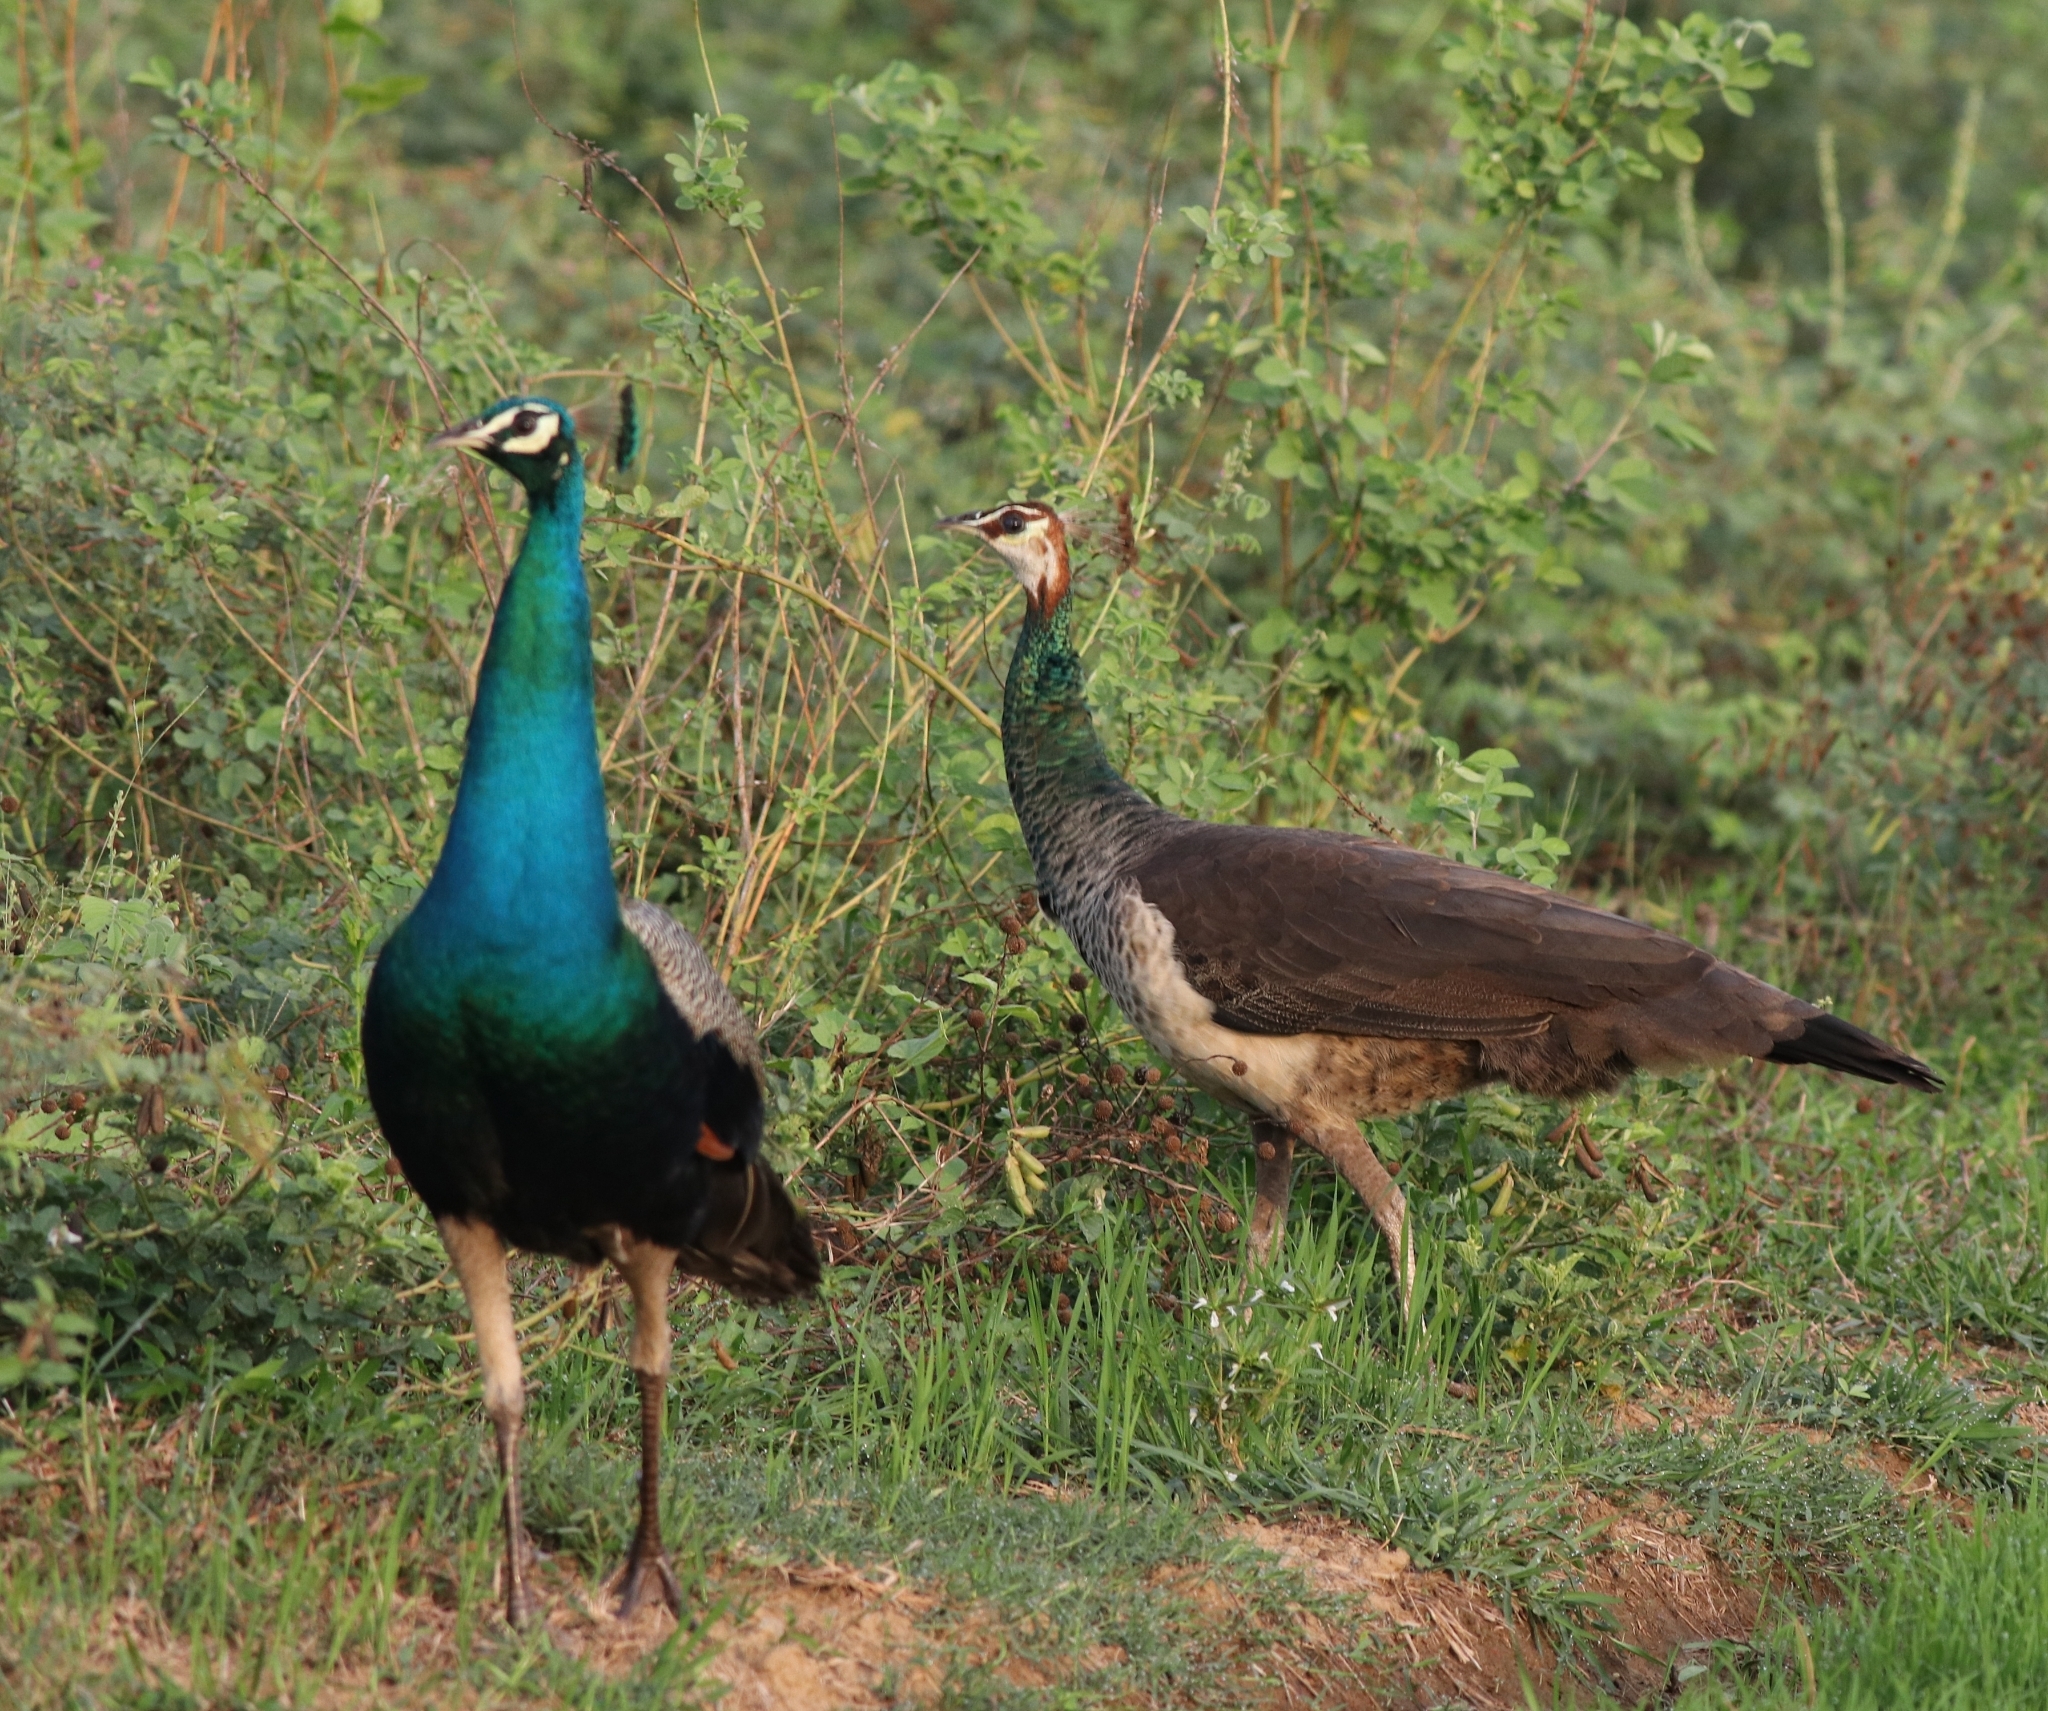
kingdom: Animalia
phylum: Chordata
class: Aves
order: Galliformes
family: Phasianidae
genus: Pavo
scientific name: Pavo cristatus
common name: Indian peafowl
